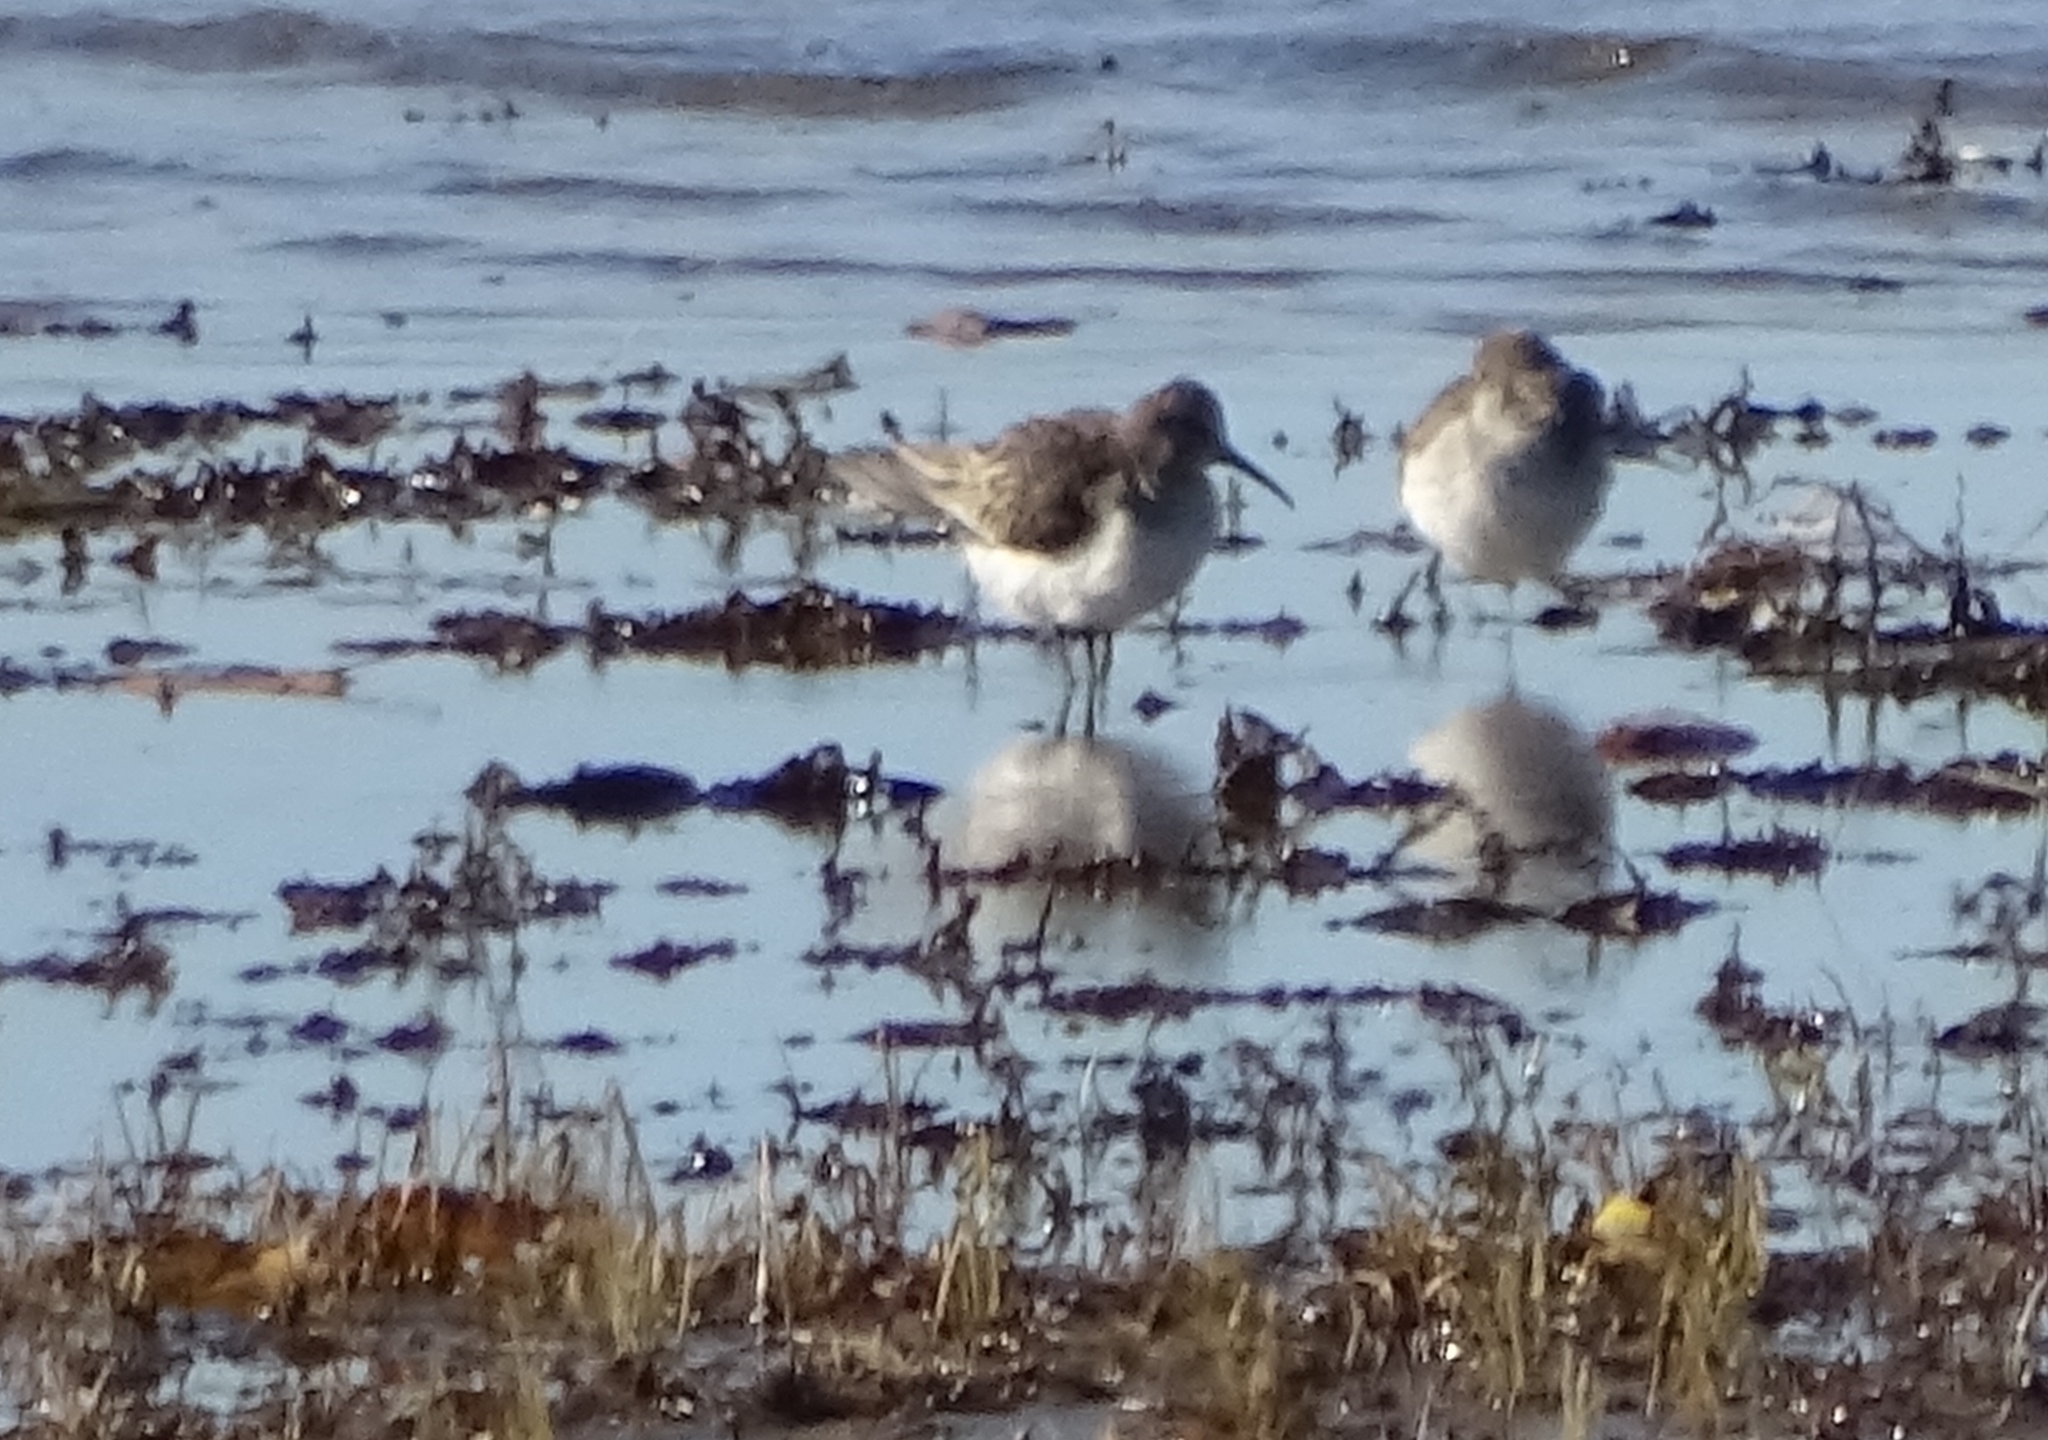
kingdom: Animalia
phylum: Chordata
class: Aves
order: Charadriiformes
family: Scolopacidae
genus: Calidris
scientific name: Calidris alpina
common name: Dunlin
